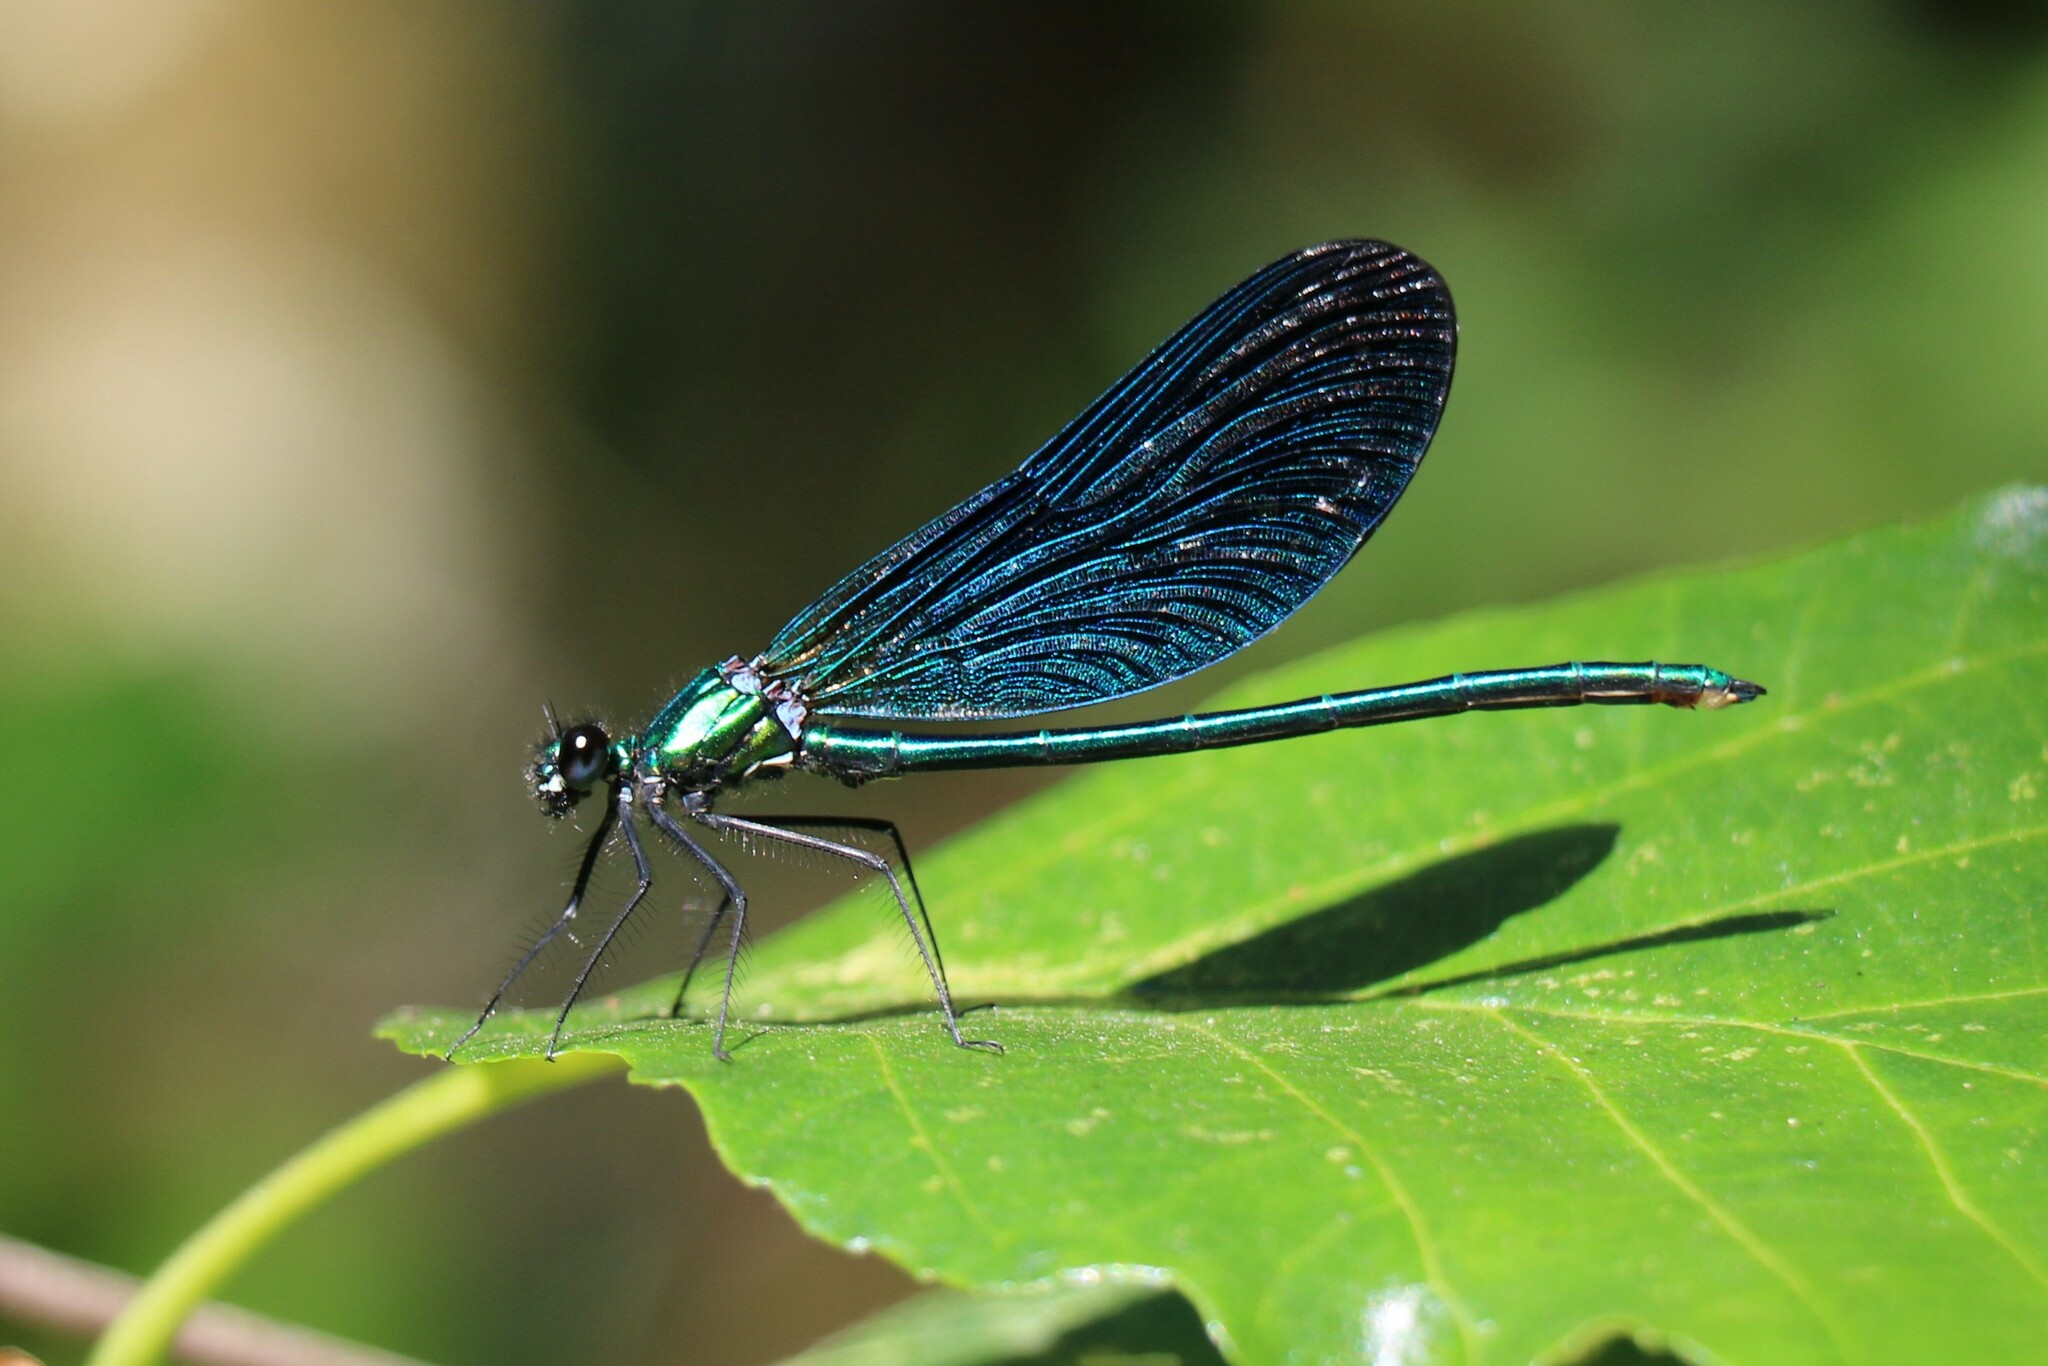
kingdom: Animalia
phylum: Arthropoda
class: Insecta
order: Odonata
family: Calopterygidae
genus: Calopteryx
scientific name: Calopteryx virgo
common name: Beautiful demoiselle
